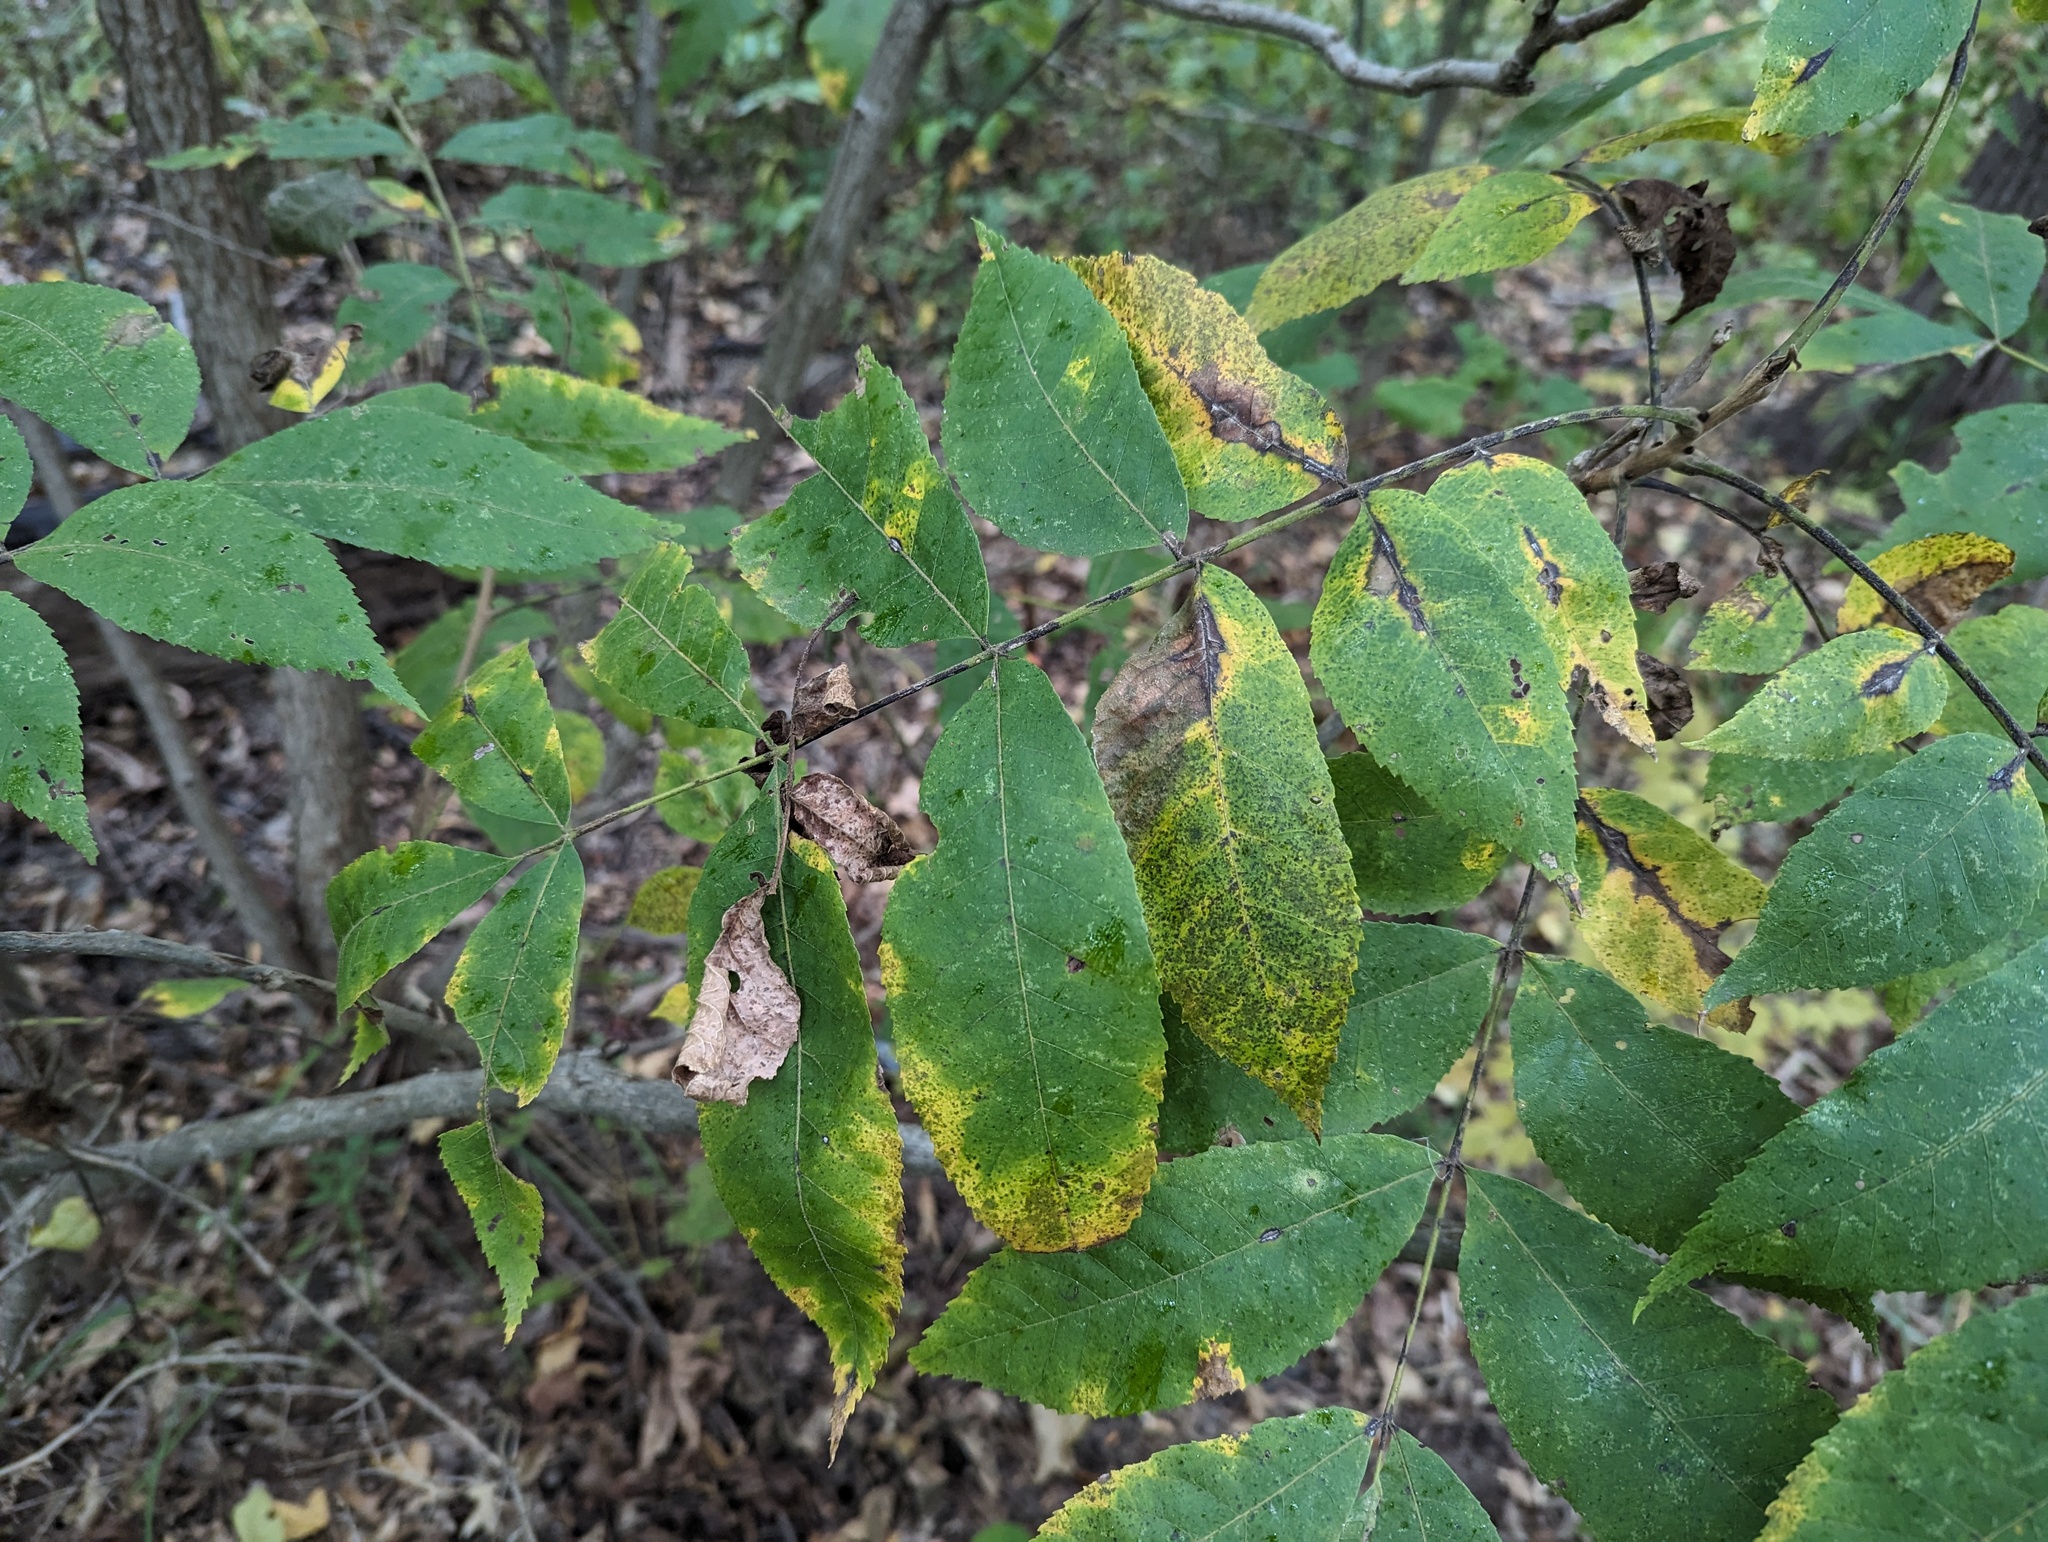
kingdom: Plantae
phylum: Tracheophyta
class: Magnoliopsida
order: Fagales
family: Juglandaceae
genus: Carya
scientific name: Carya illinoinensis
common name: Pecan
